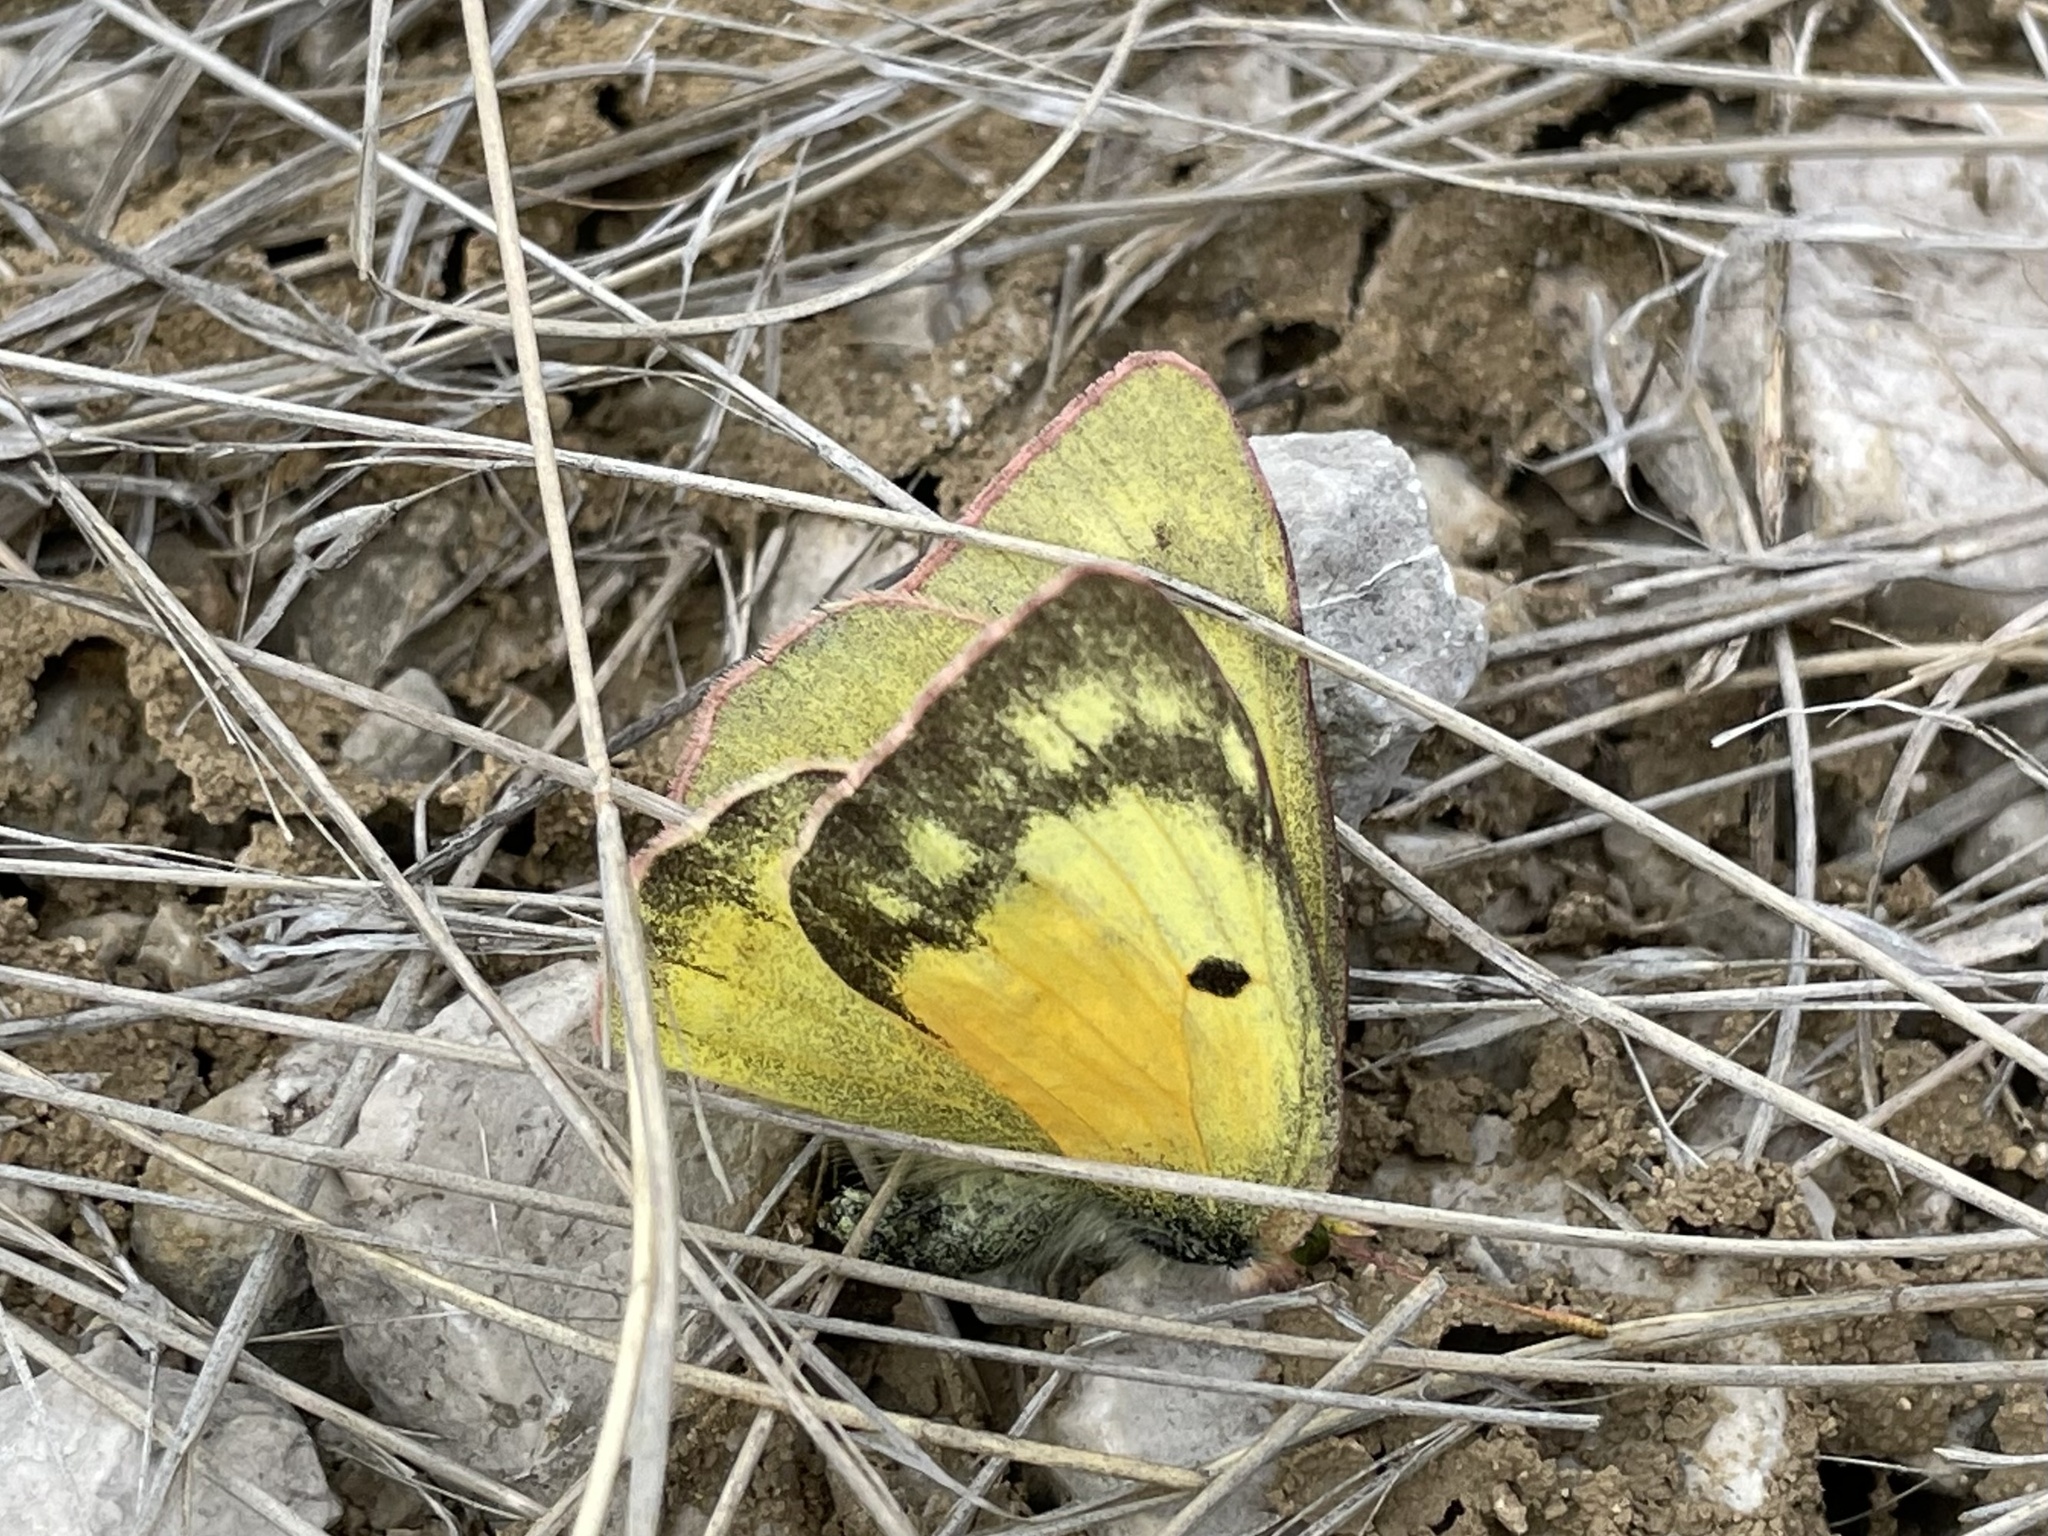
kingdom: Animalia
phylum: Arthropoda
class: Insecta
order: Lepidoptera
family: Pieridae
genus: Colias
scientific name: Colias eurytheme
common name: Alfalfa butterfly
